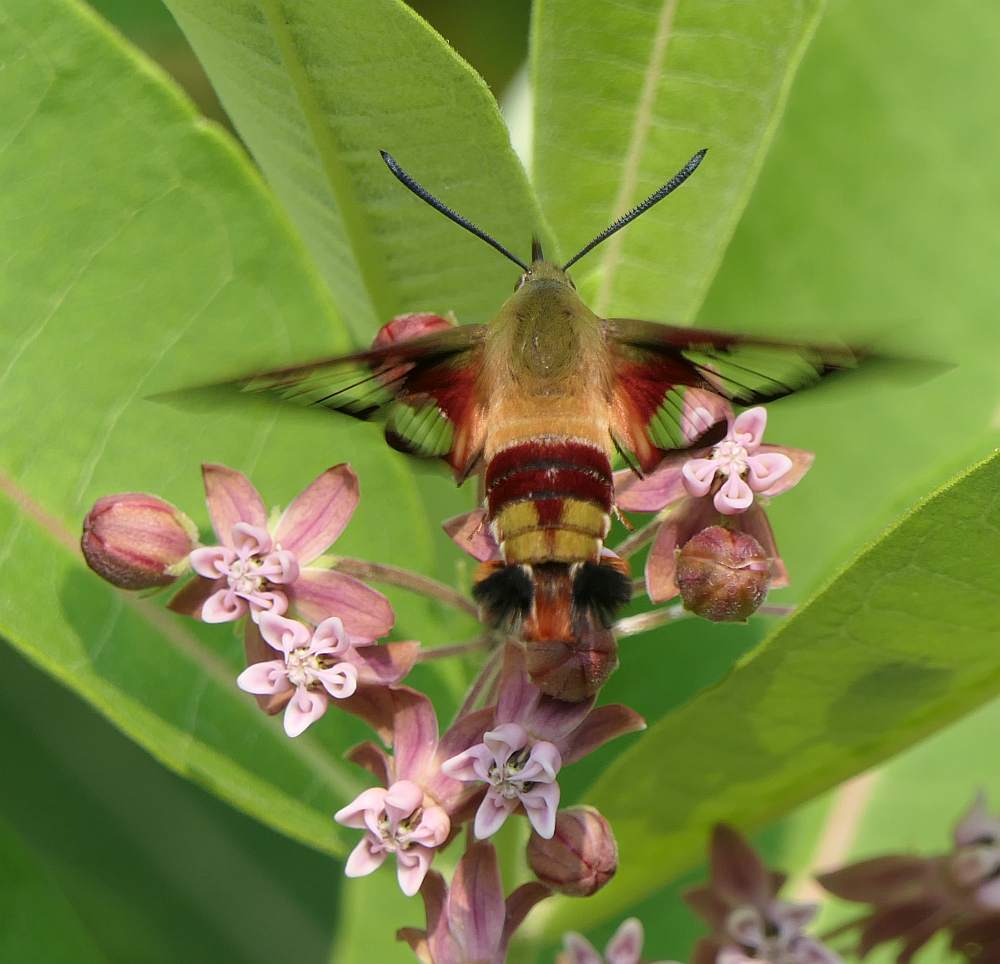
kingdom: Animalia
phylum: Arthropoda
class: Insecta
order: Lepidoptera
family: Sphingidae
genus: Hemaris
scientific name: Hemaris thysbe
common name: Common clear-wing
